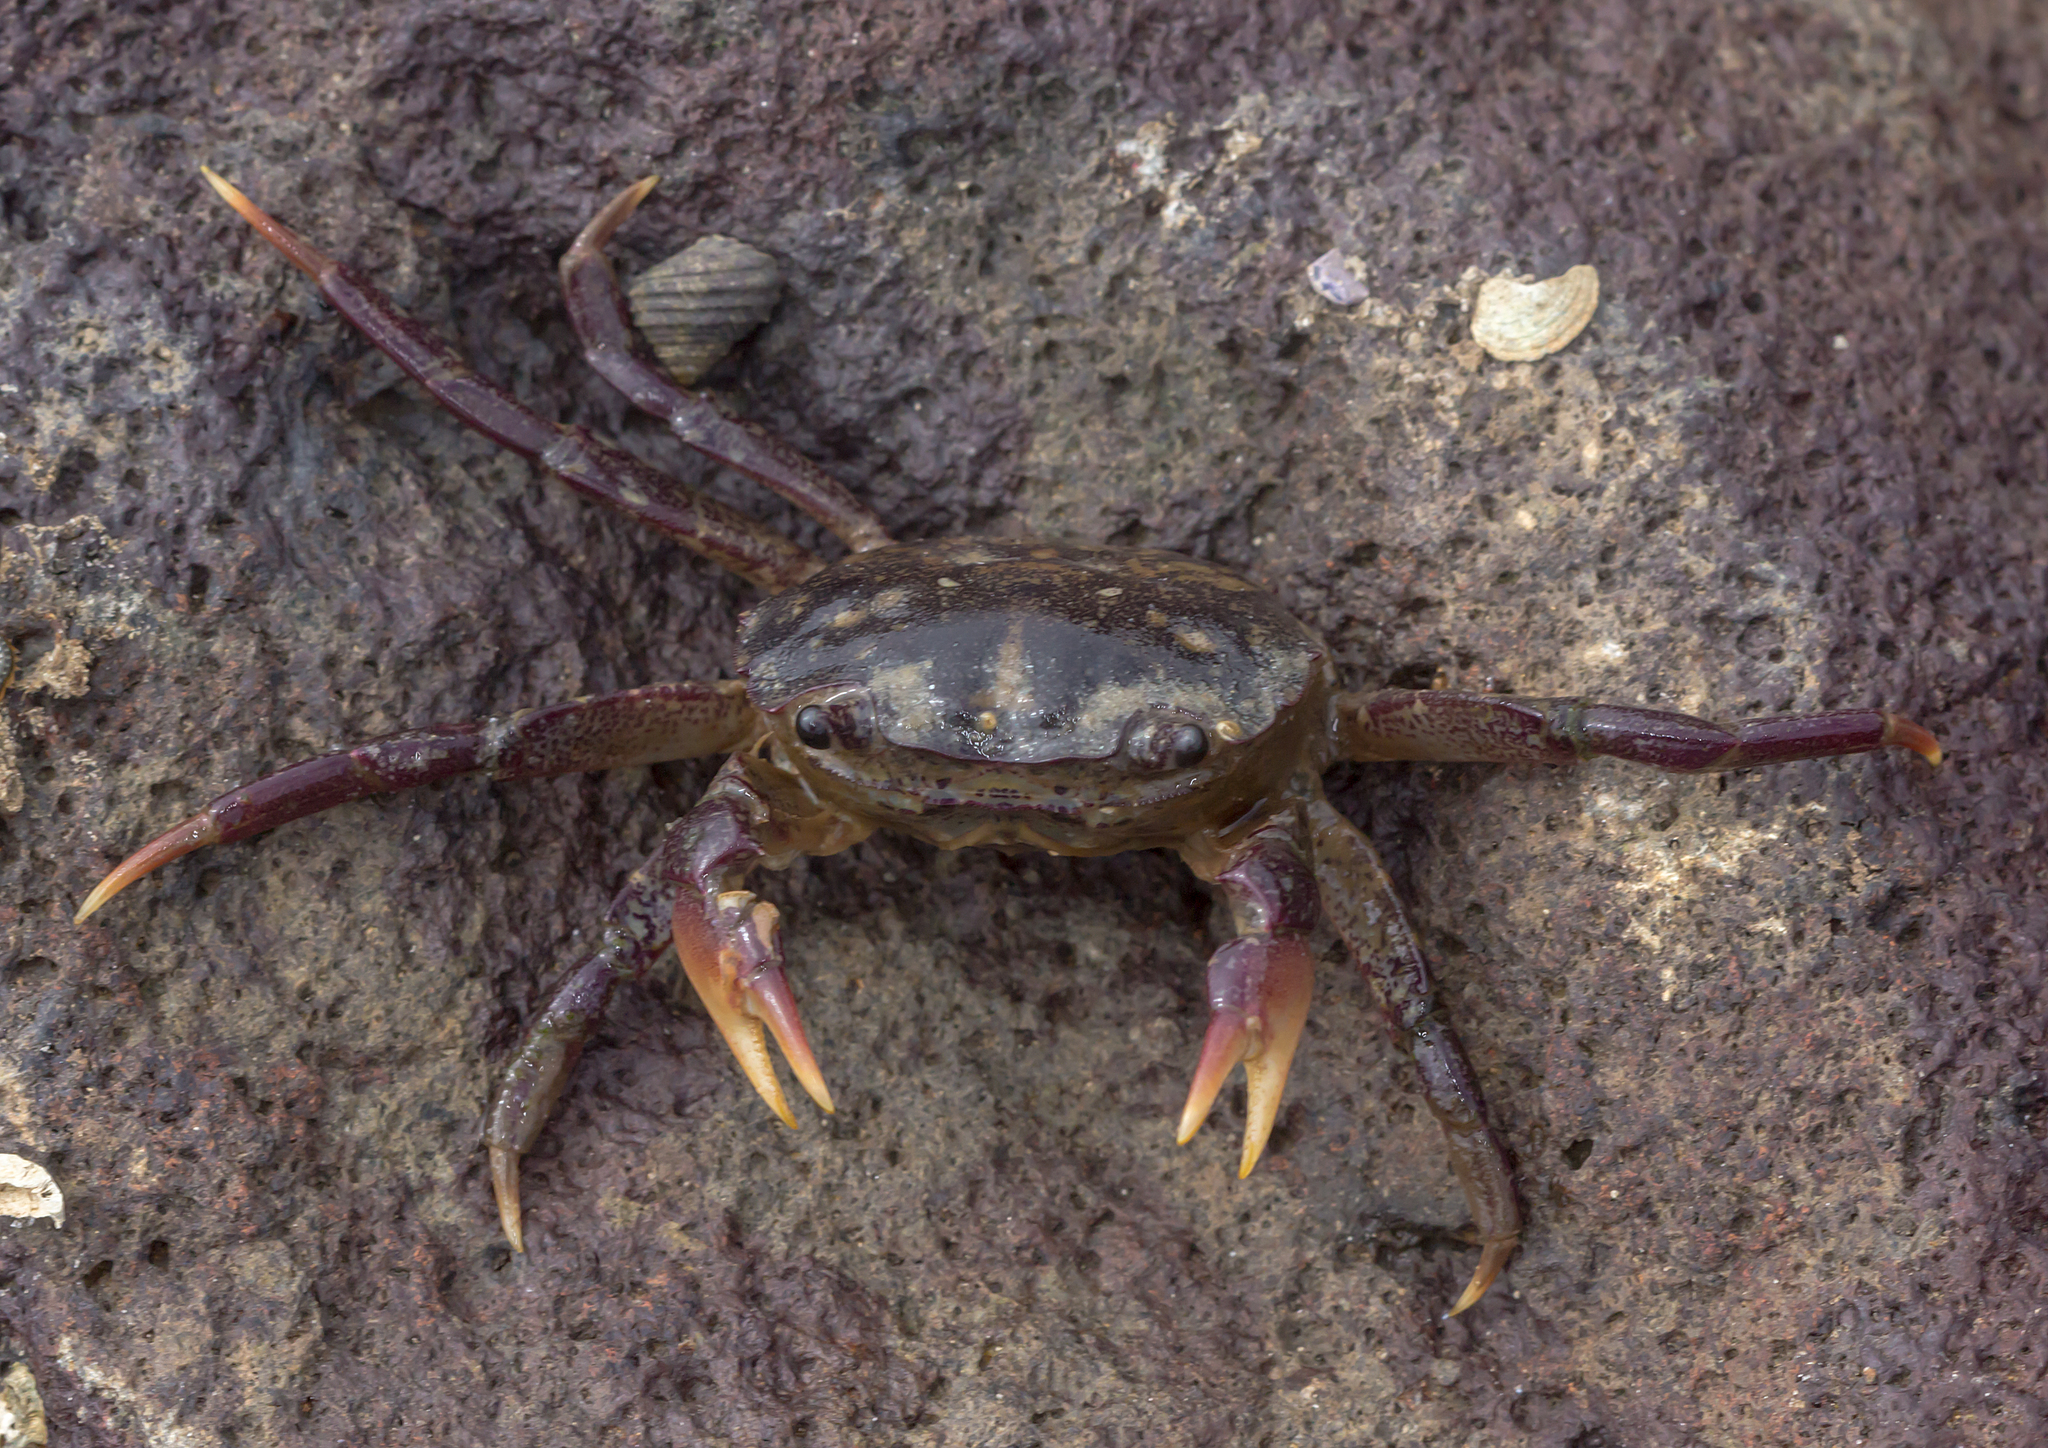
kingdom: Animalia
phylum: Arthropoda
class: Malacostraca
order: Decapoda
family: Varunidae
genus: Paragrapsus
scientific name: Paragrapsus laevis
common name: Smooth shore crab
